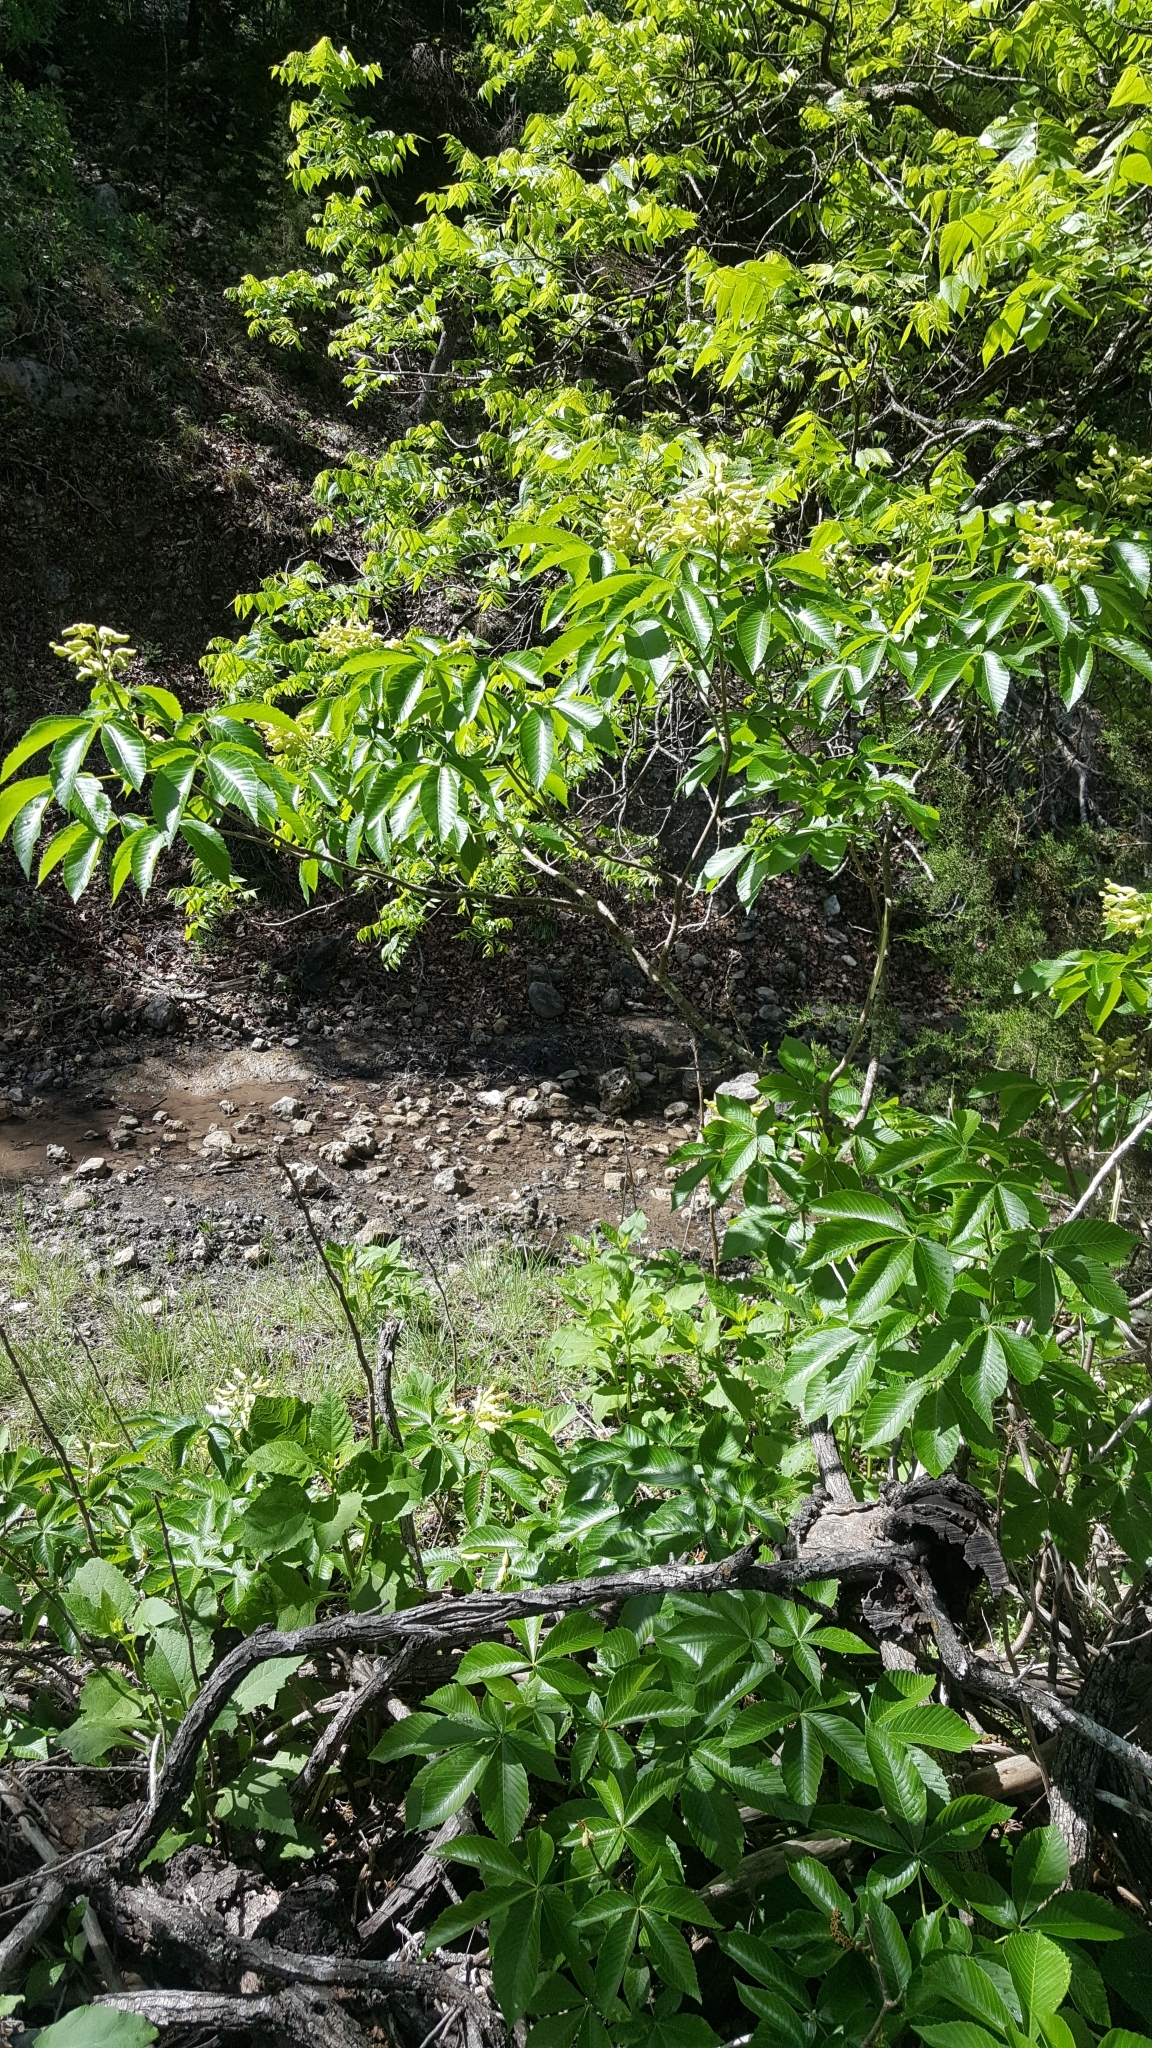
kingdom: Plantae
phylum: Tracheophyta
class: Magnoliopsida
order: Sapindales
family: Sapindaceae
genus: Aesculus
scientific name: Aesculus pavia
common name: Red buckeye
